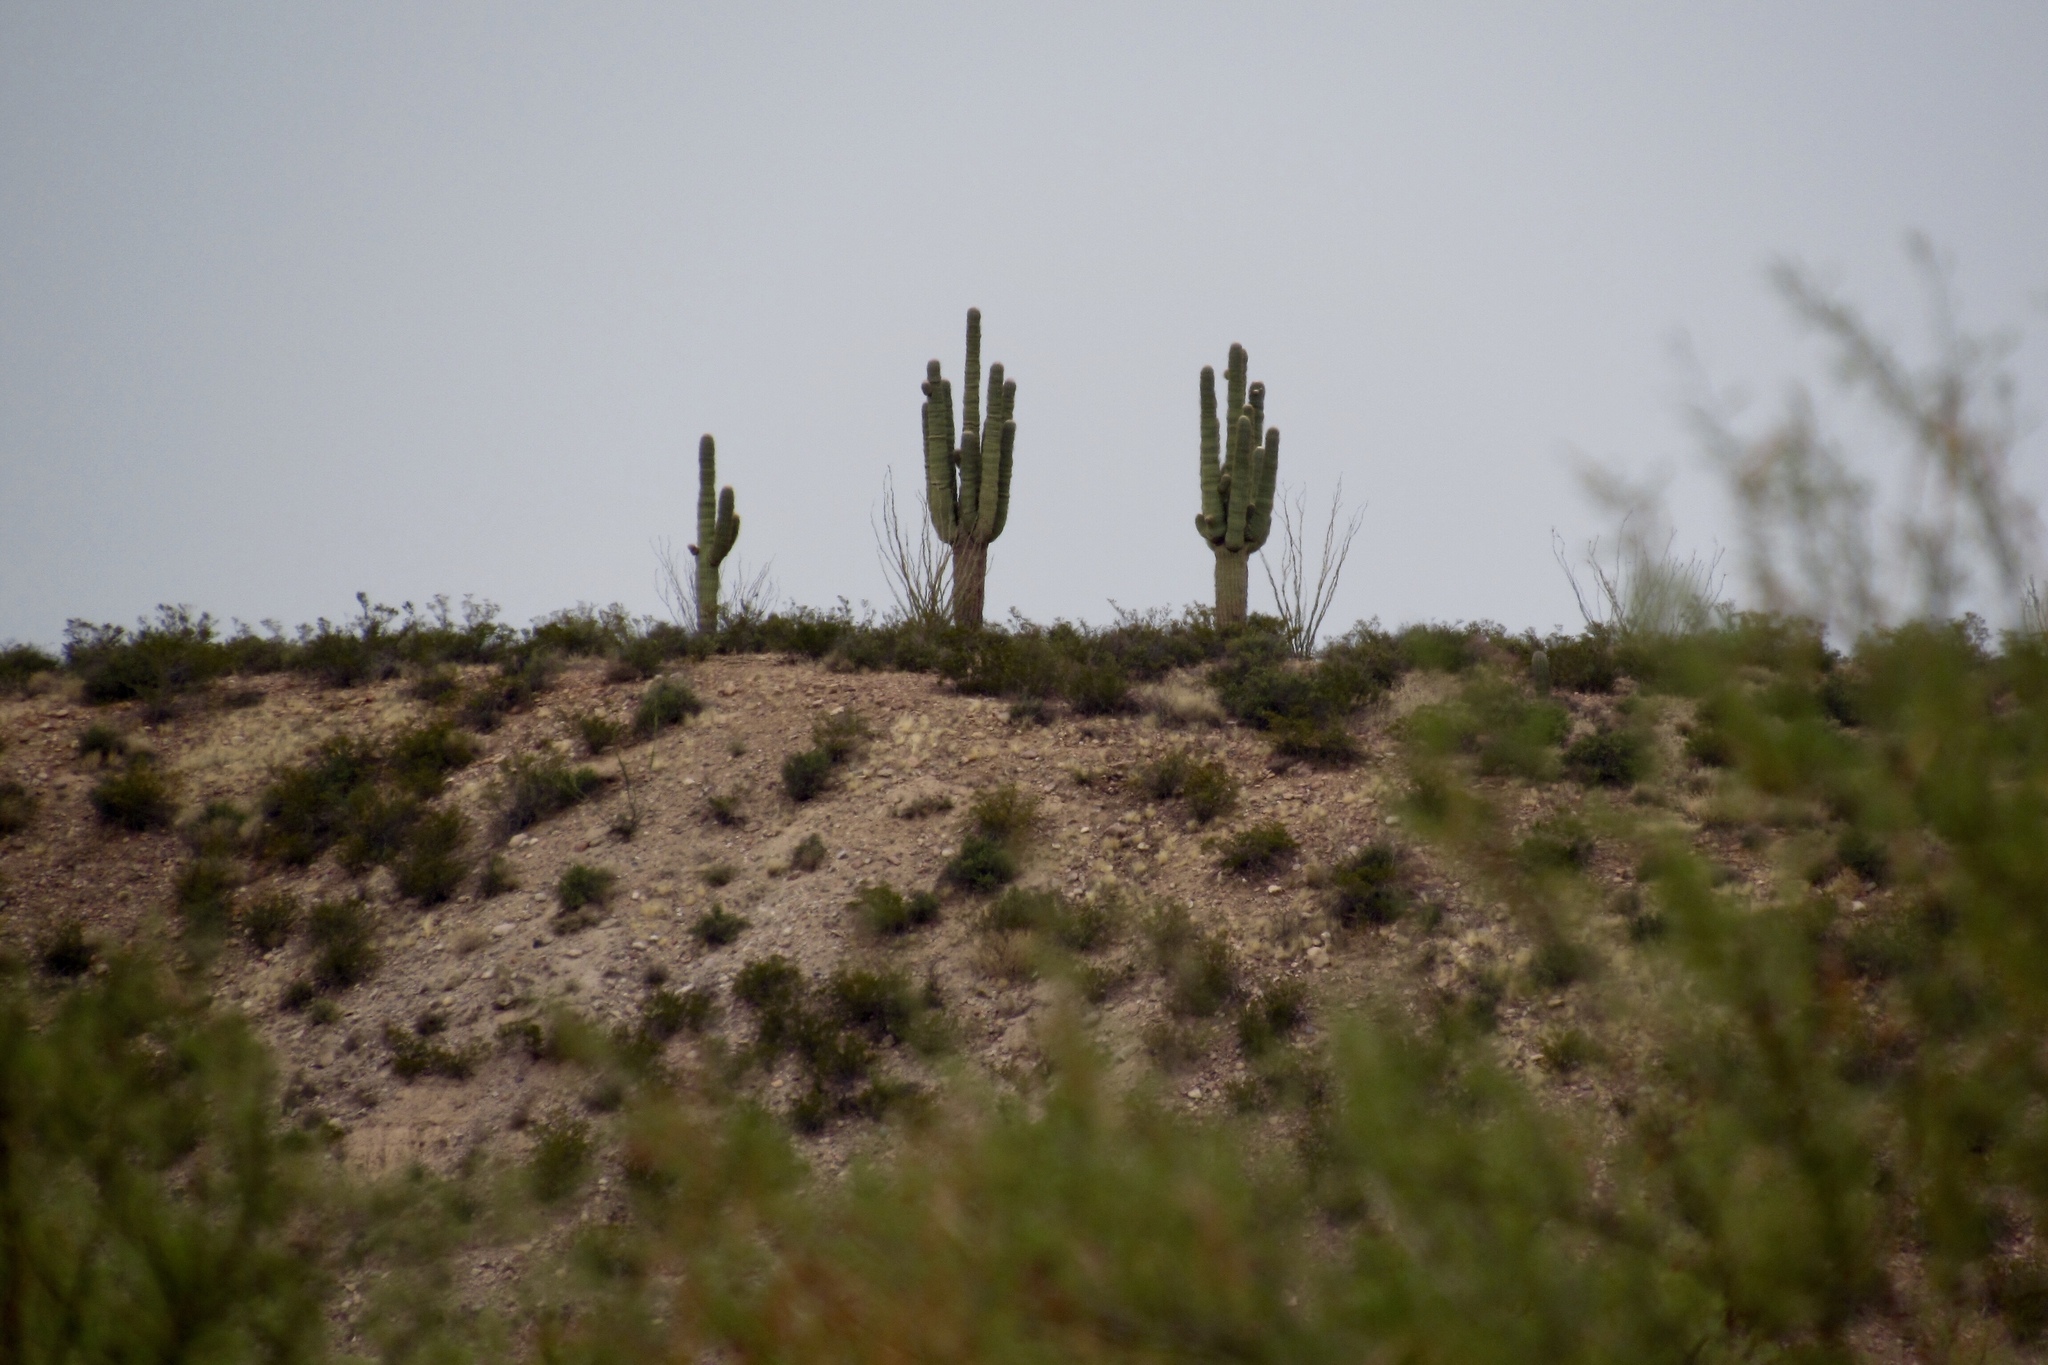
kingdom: Plantae
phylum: Tracheophyta
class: Magnoliopsida
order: Caryophyllales
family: Cactaceae
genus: Carnegiea
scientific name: Carnegiea gigantea
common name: Saguaro
